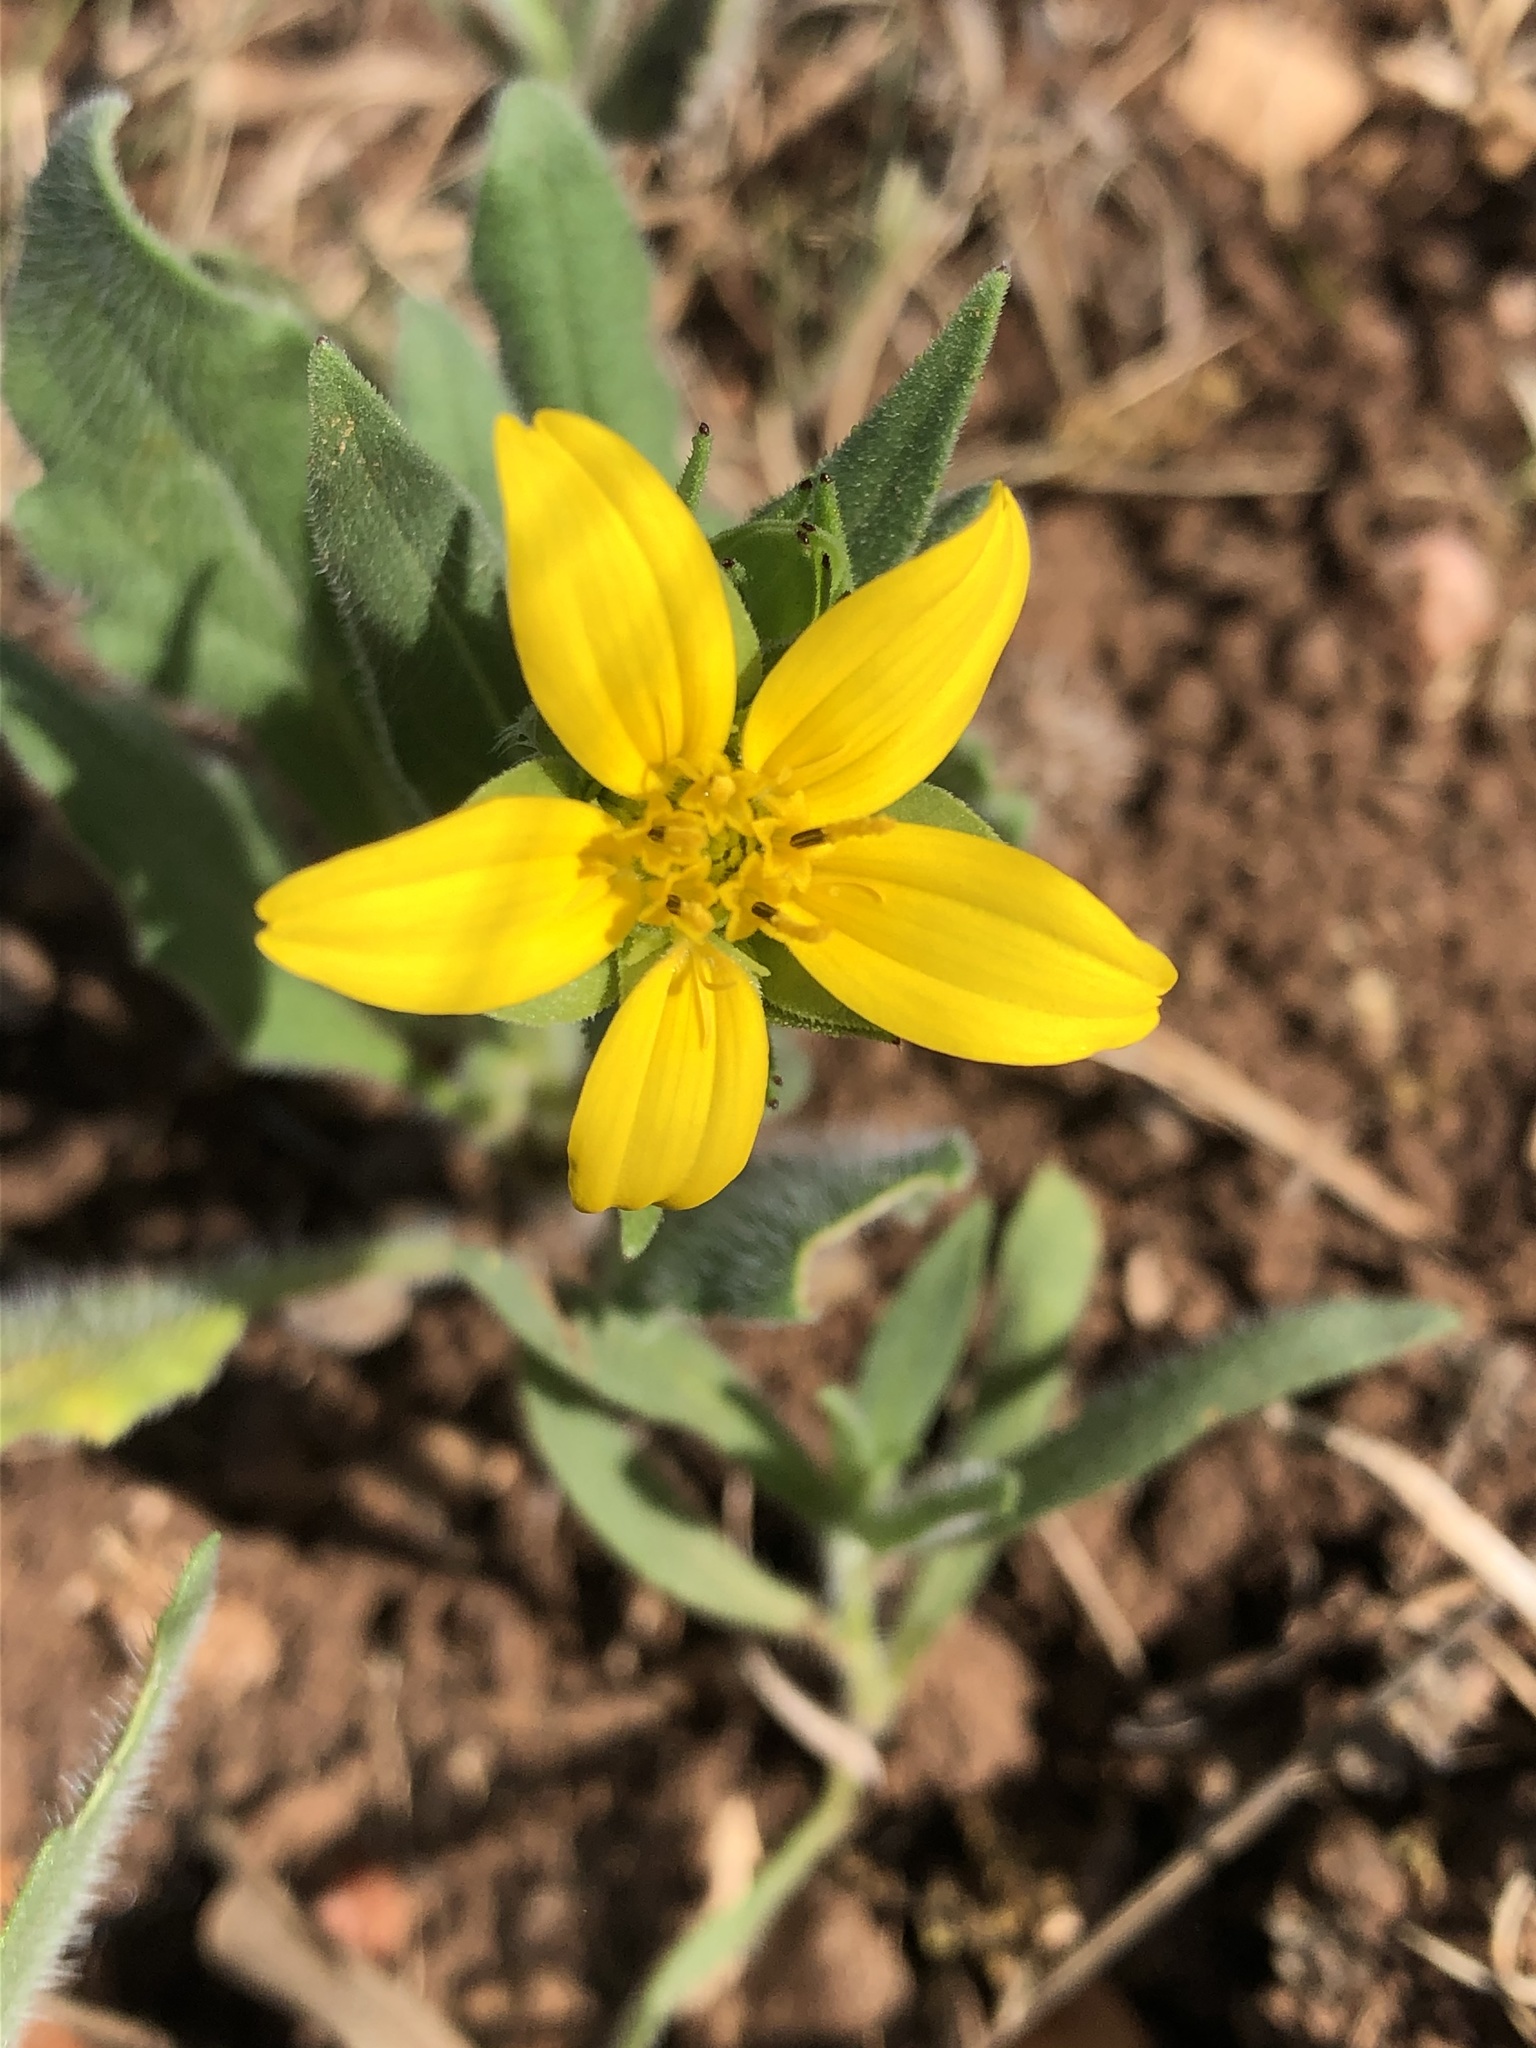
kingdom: Plantae
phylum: Tracheophyta
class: Magnoliopsida
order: Asterales
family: Asteraceae
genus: Lindheimera
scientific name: Lindheimera texana
